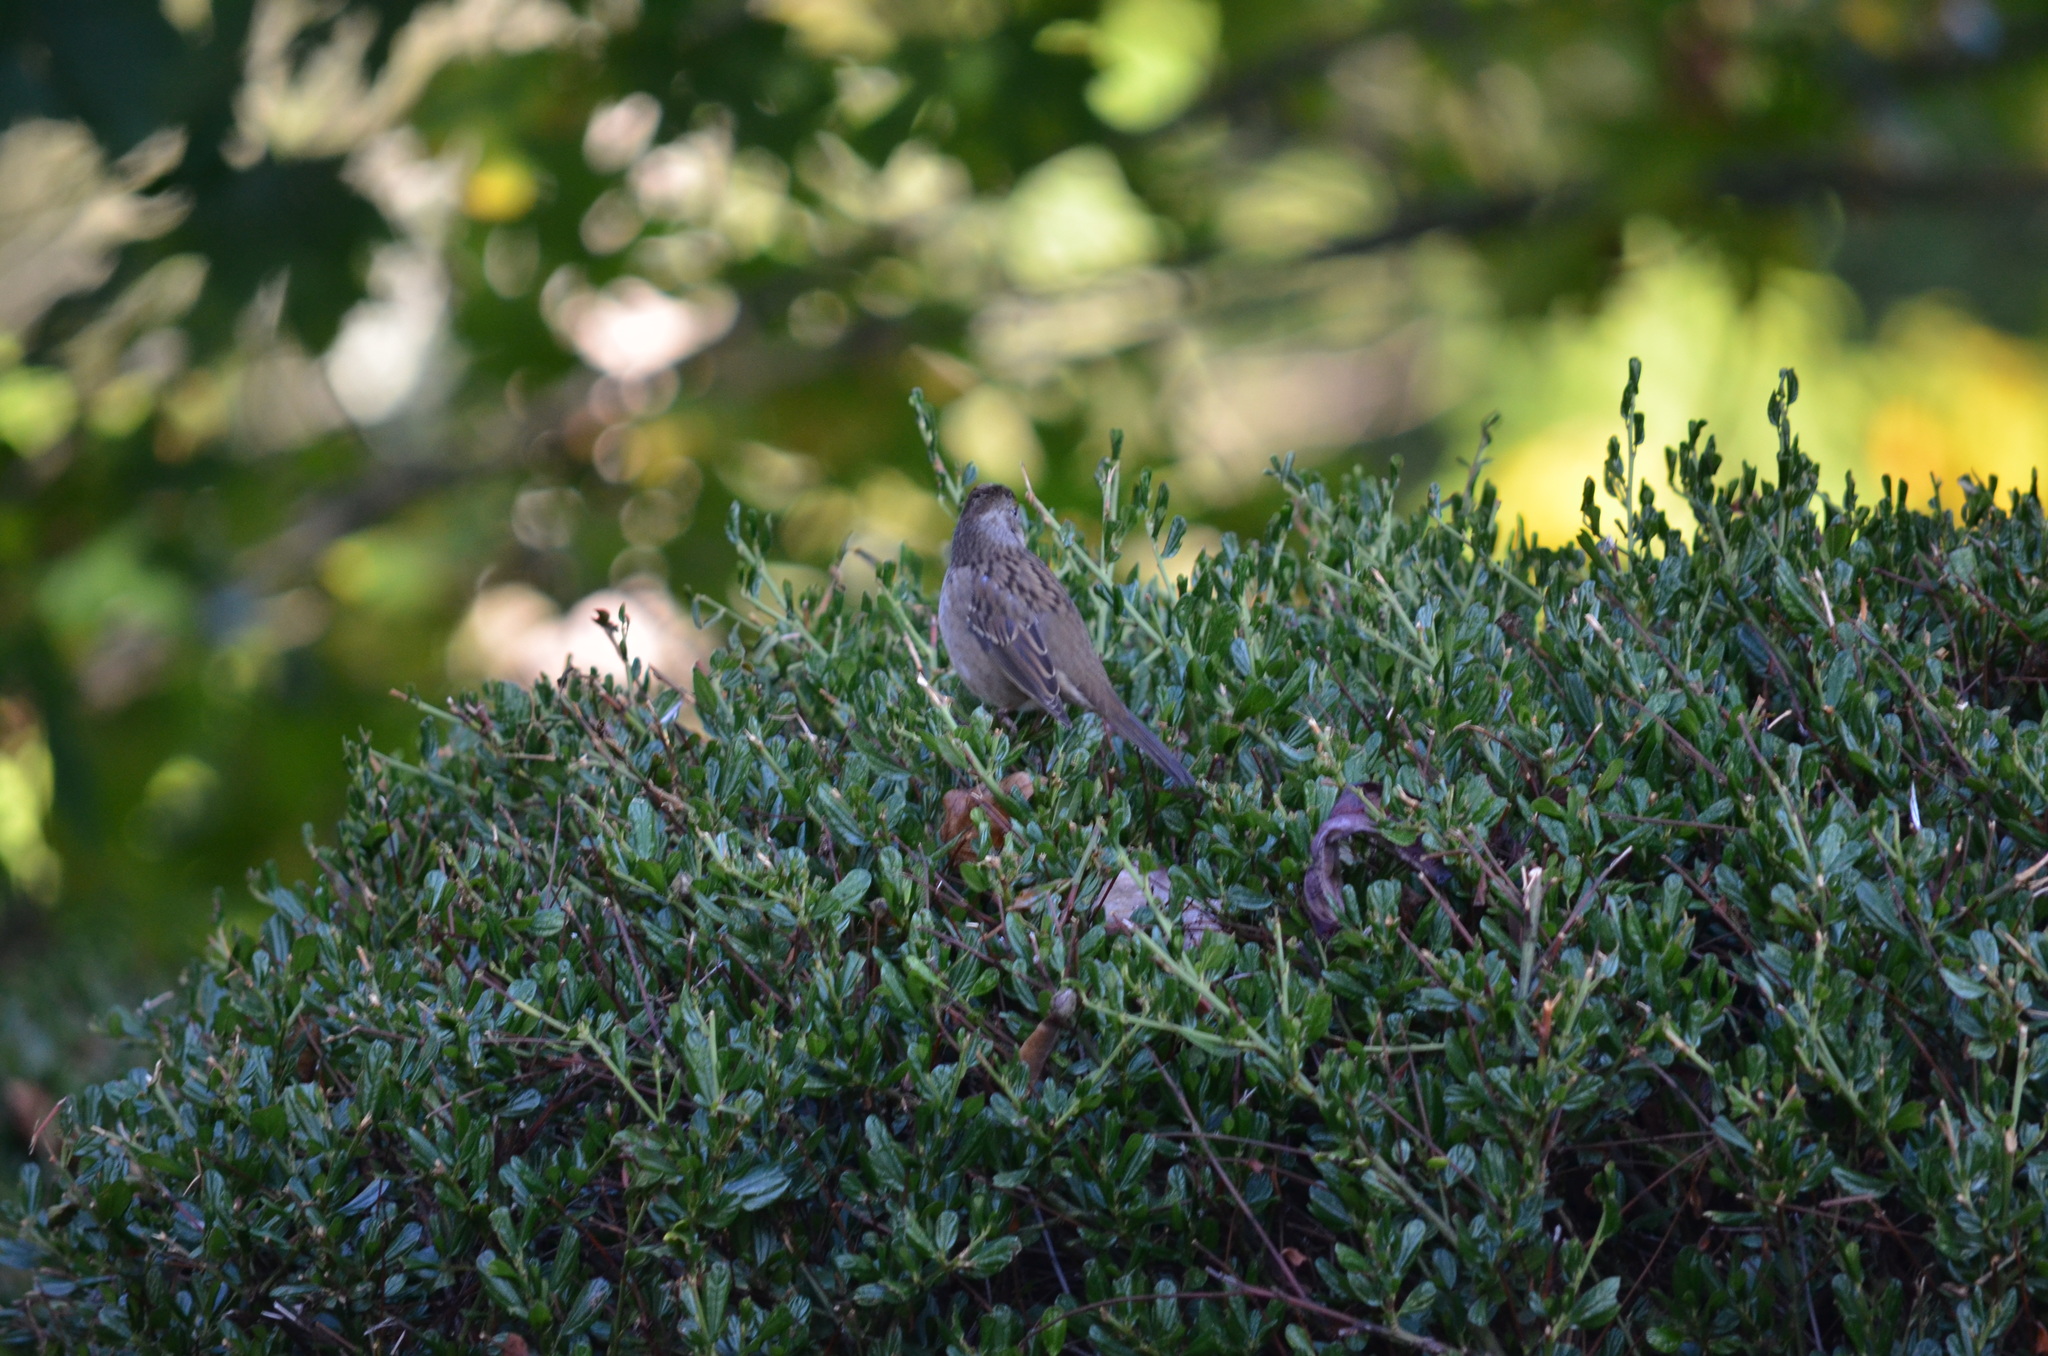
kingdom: Animalia
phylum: Chordata
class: Aves
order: Passeriformes
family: Passerellidae
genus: Zonotrichia
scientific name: Zonotrichia atricapilla
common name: Golden-crowned sparrow
